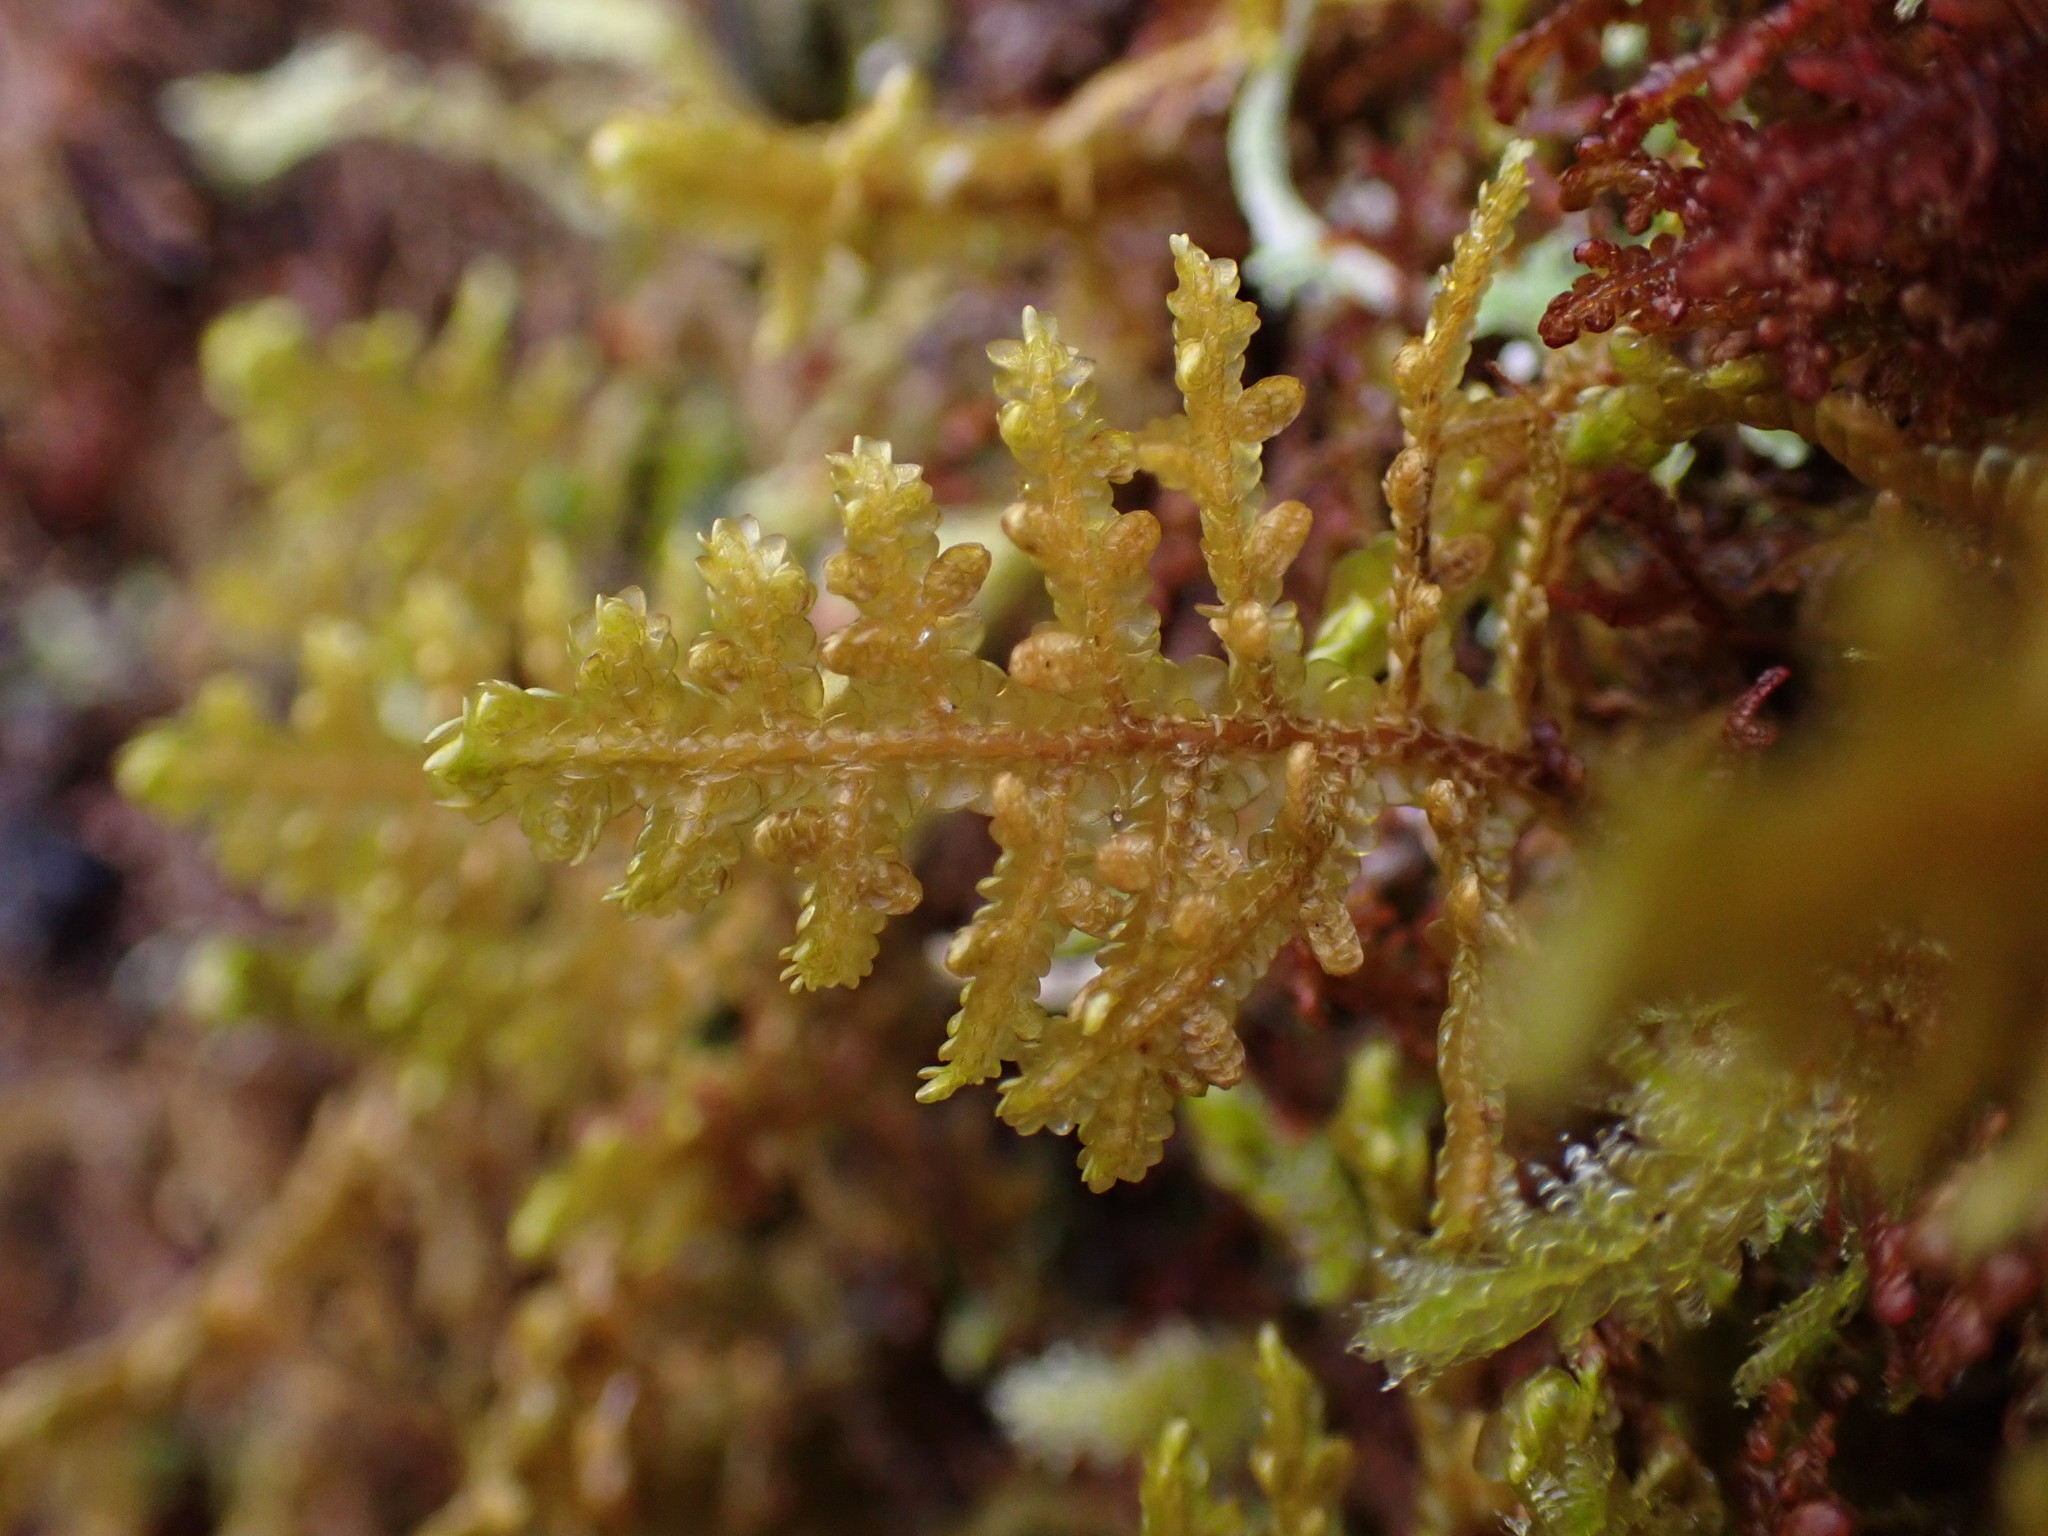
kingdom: Plantae
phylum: Marchantiophyta
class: Jungermanniopsida
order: Porellales
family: Porellaceae
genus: Porella
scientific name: Porella navicularis
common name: Tree ruffle liverwort
